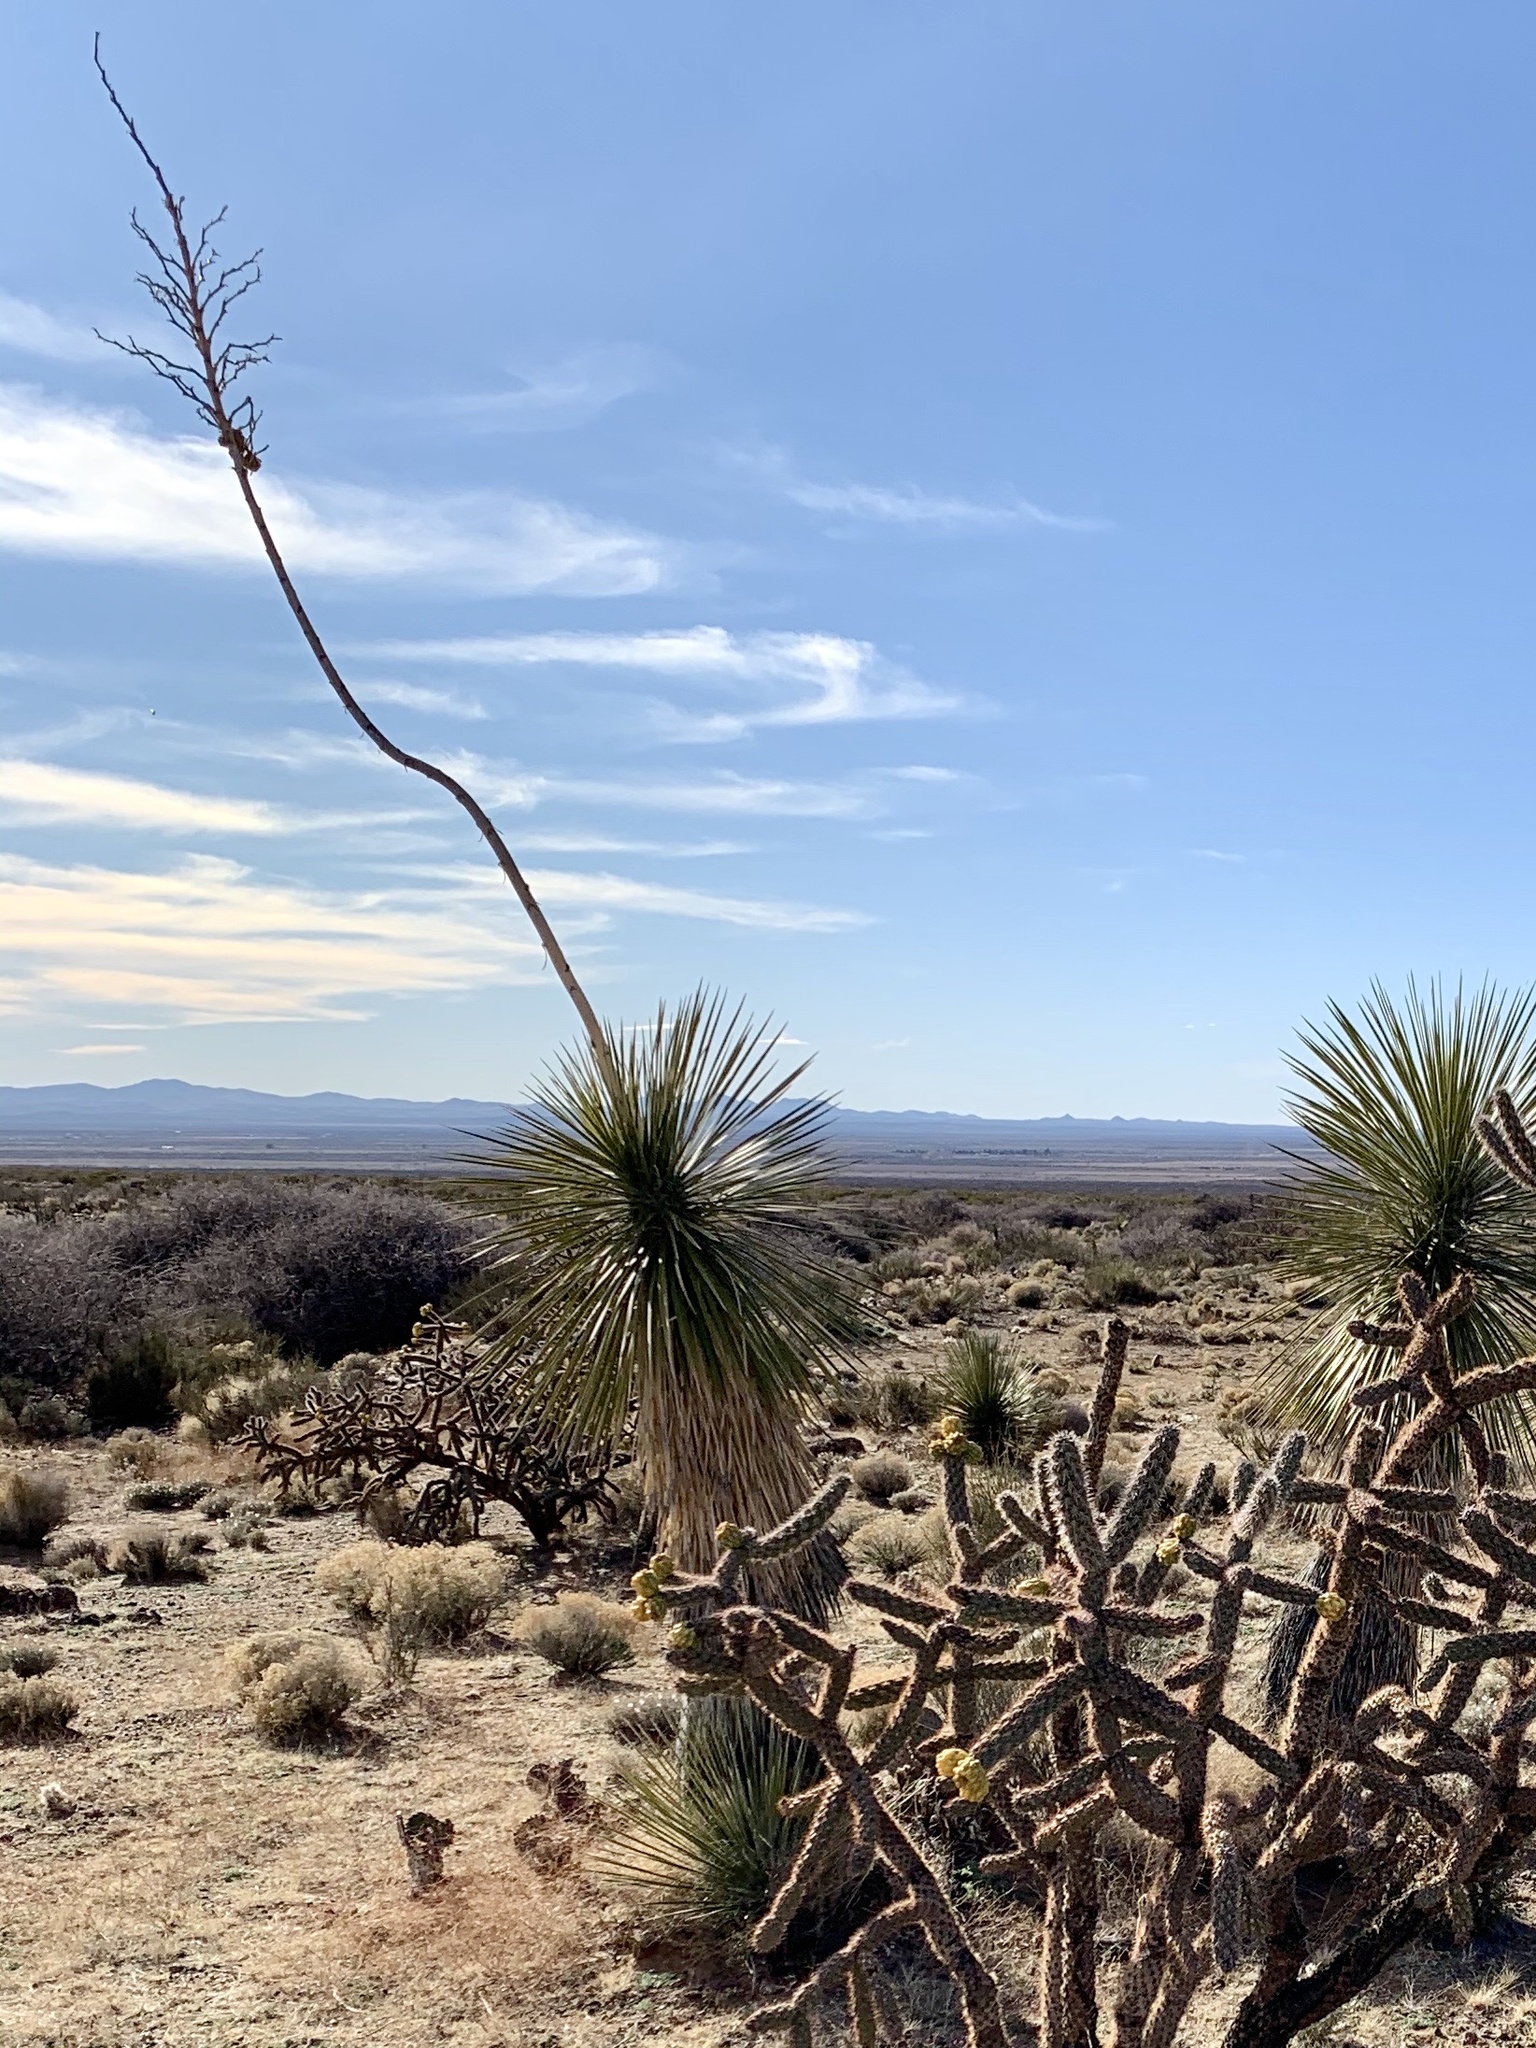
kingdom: Plantae
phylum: Tracheophyta
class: Liliopsida
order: Asparagales
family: Asparagaceae
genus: Yucca
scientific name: Yucca elata
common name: Palmella
